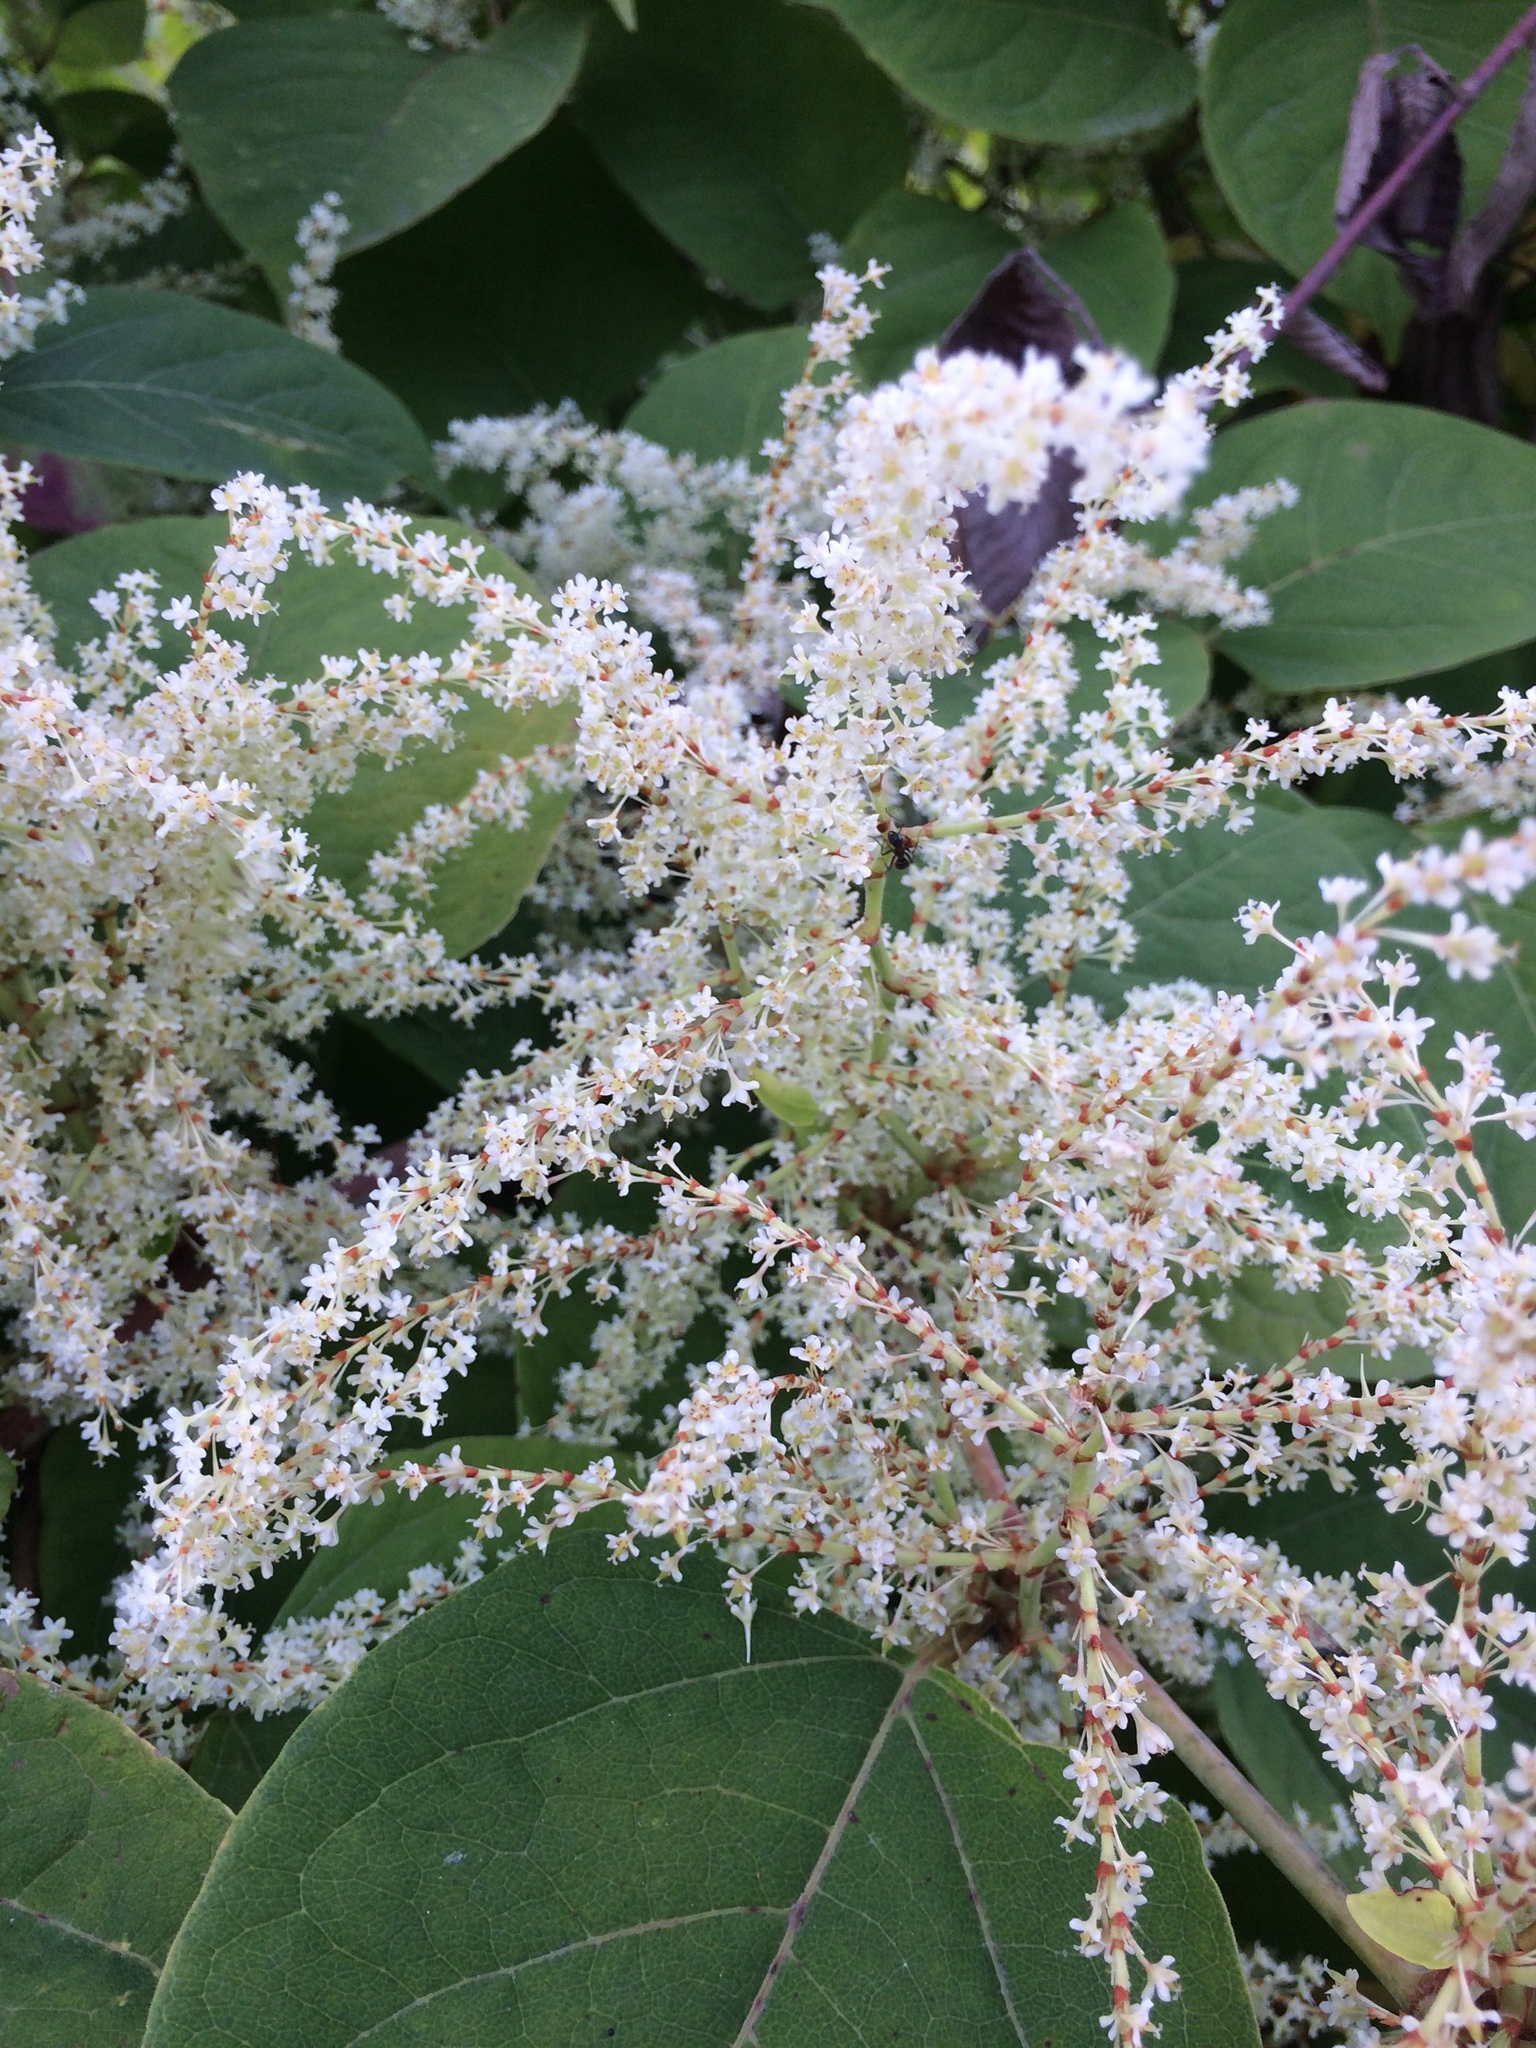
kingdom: Plantae
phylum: Tracheophyta
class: Magnoliopsida
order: Caryophyllales
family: Polygonaceae
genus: Reynoutria
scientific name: Reynoutria japonica
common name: Japanese knotweed
